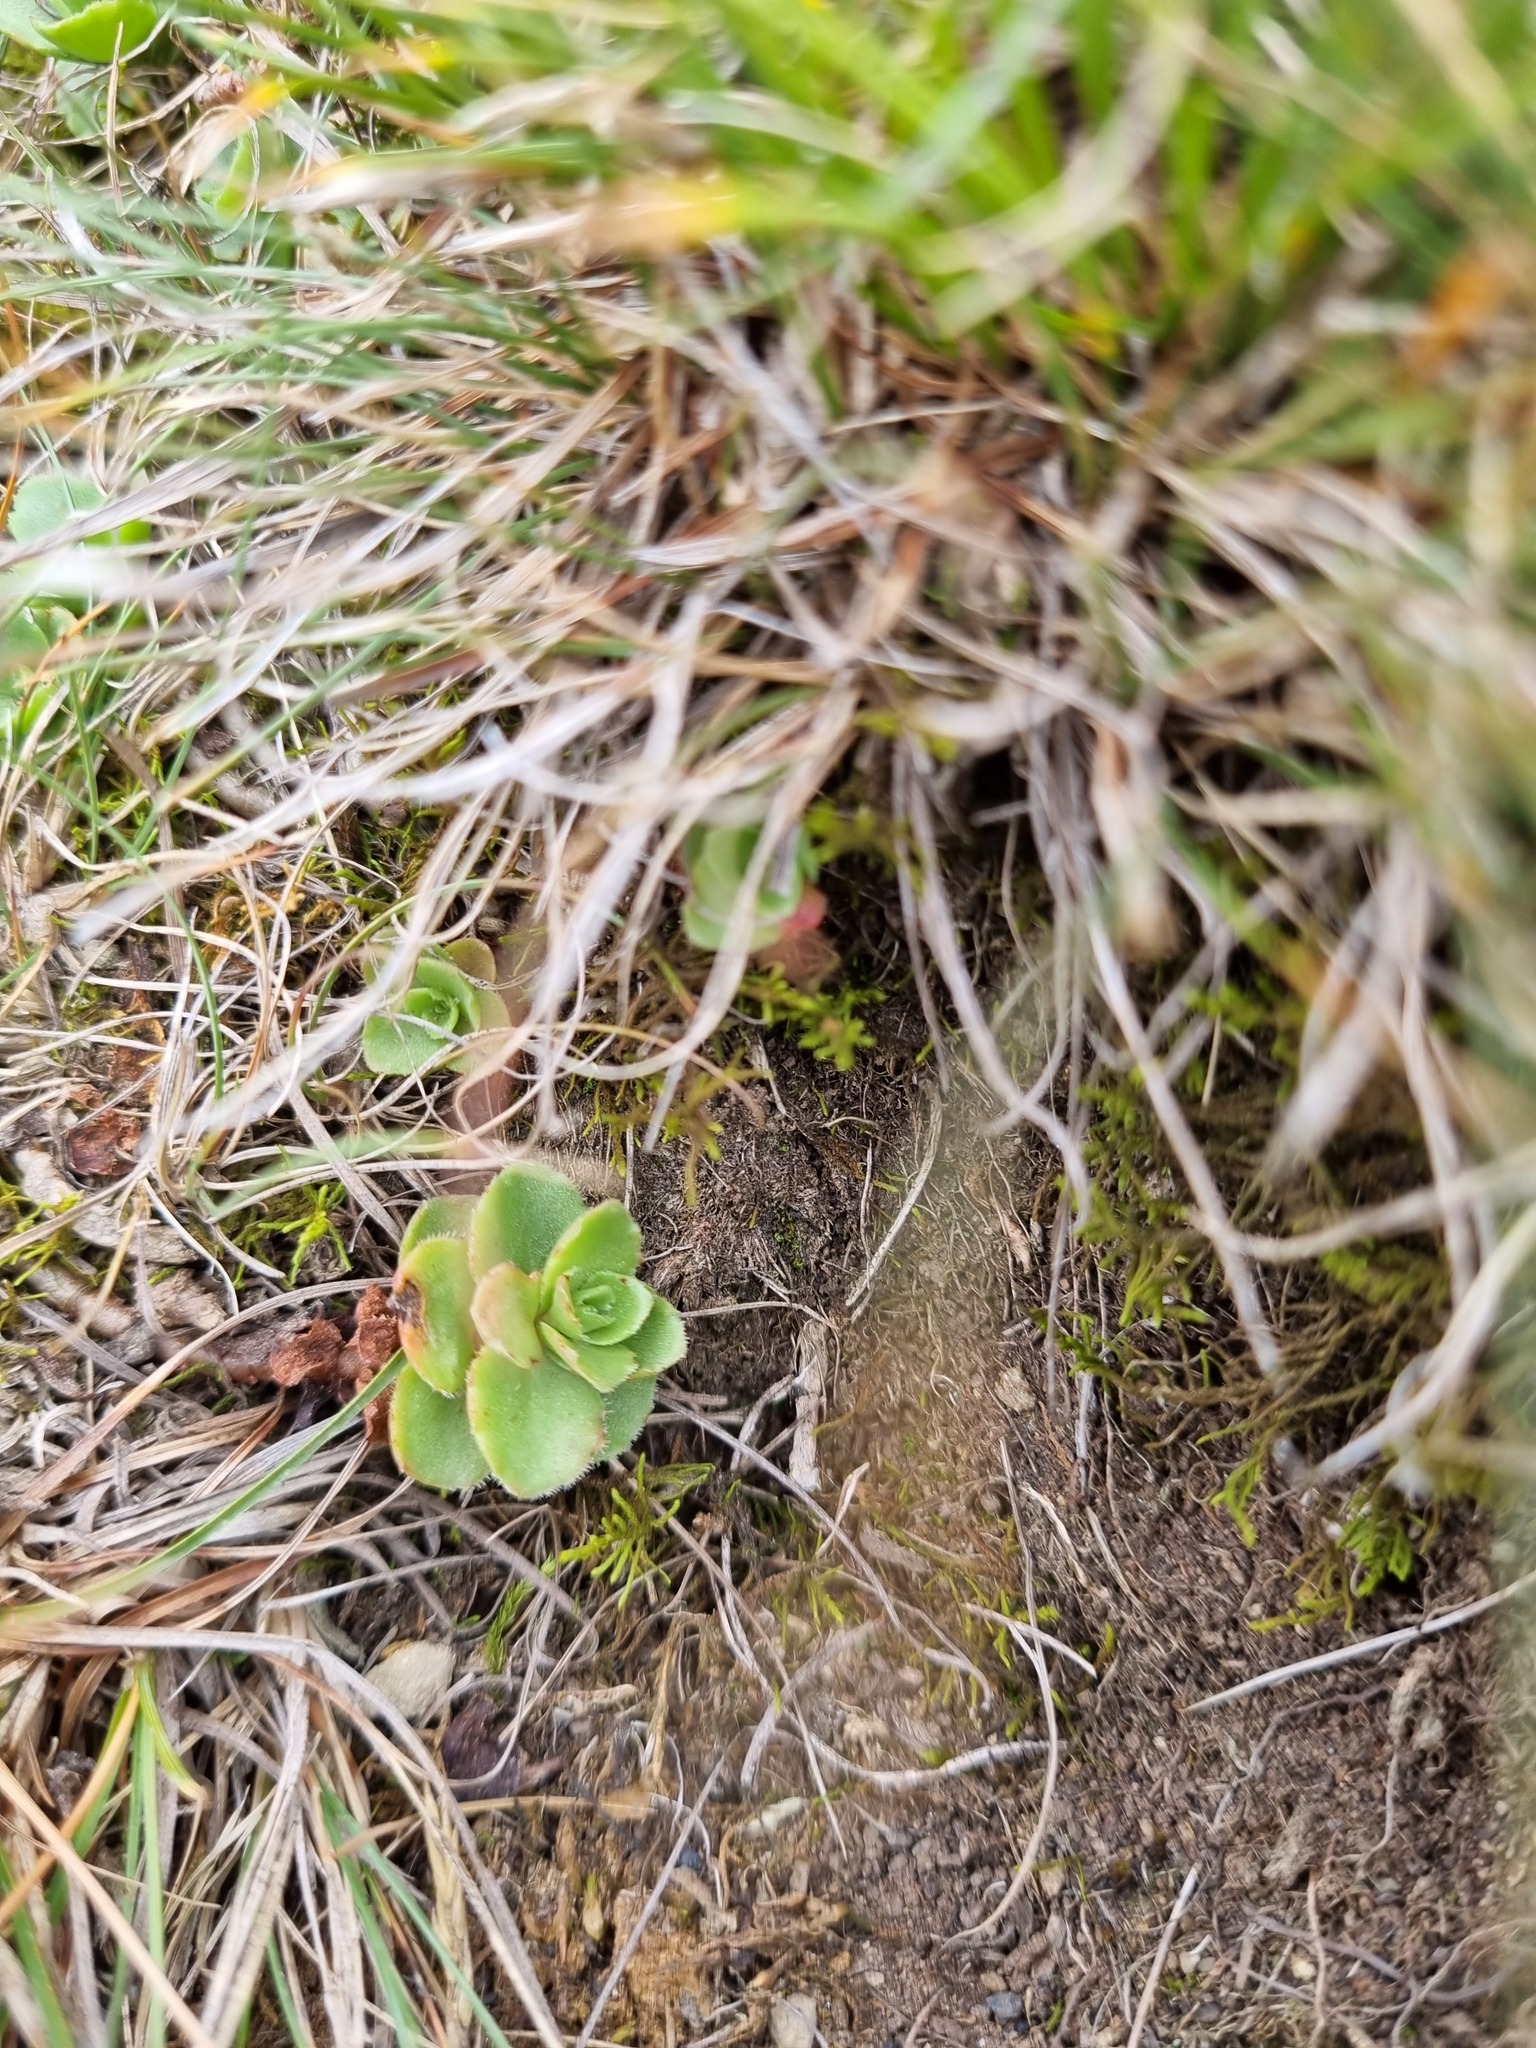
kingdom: Plantae
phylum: Tracheophyta
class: Magnoliopsida
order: Saxifragales
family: Crassulaceae
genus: Phedimus
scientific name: Phedimus spurius
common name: Caucasian stonecrop
